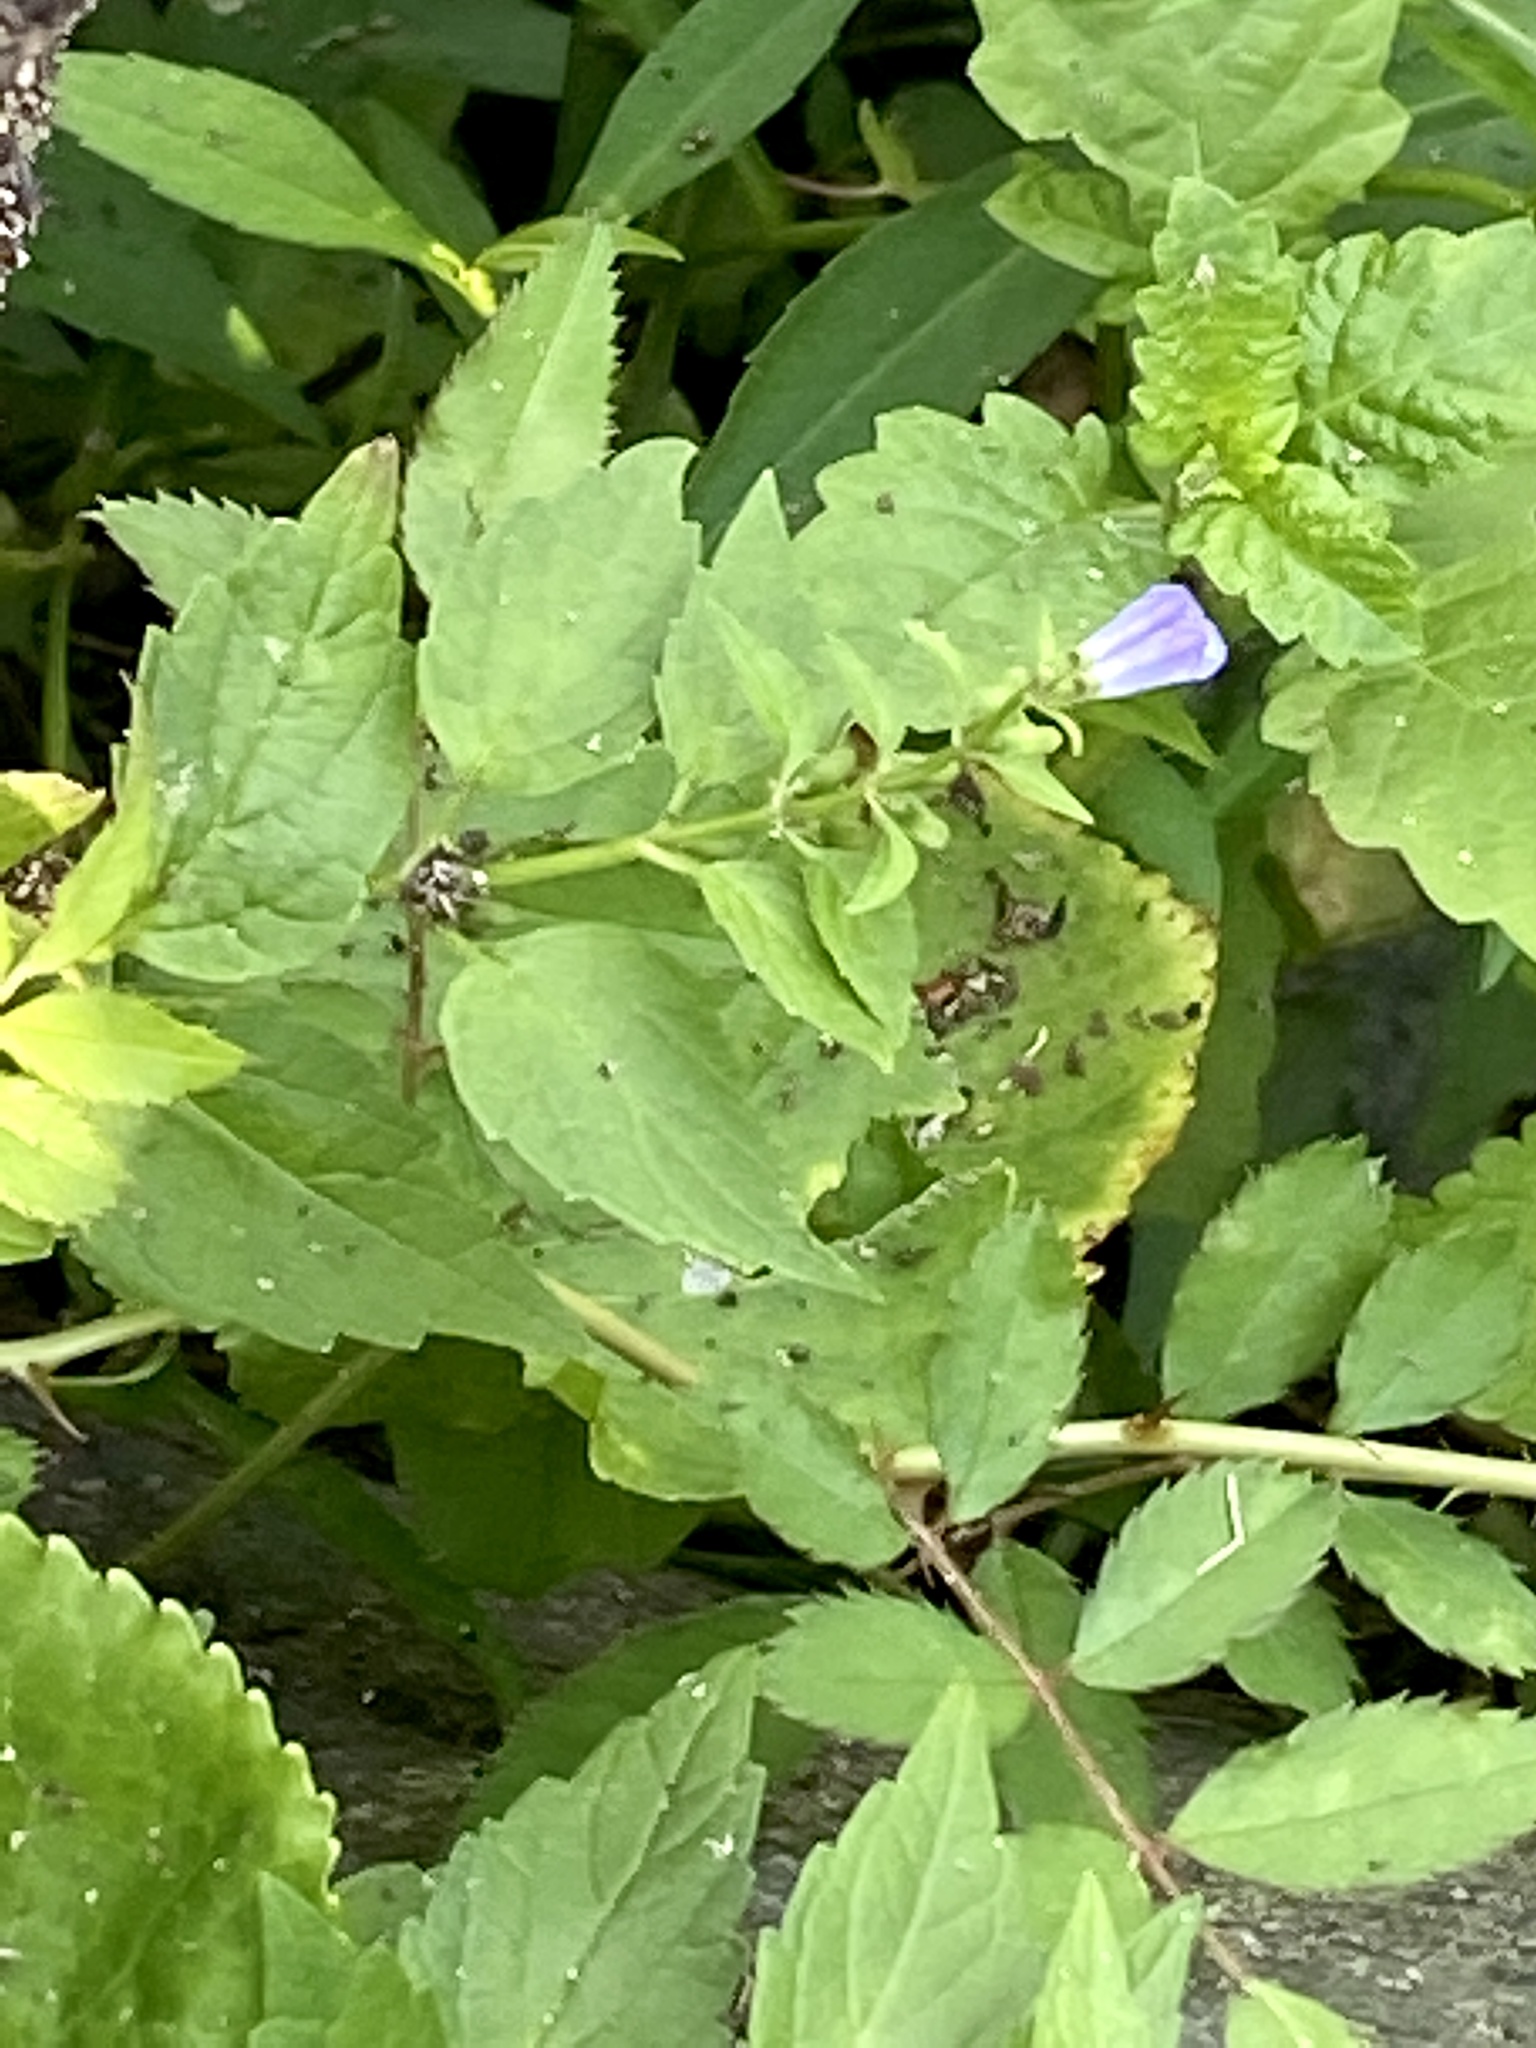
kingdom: Plantae
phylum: Tracheophyta
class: Magnoliopsida
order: Lamiales
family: Lamiaceae
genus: Scutellaria
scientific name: Scutellaria lateriflora
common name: Blue skullcap
